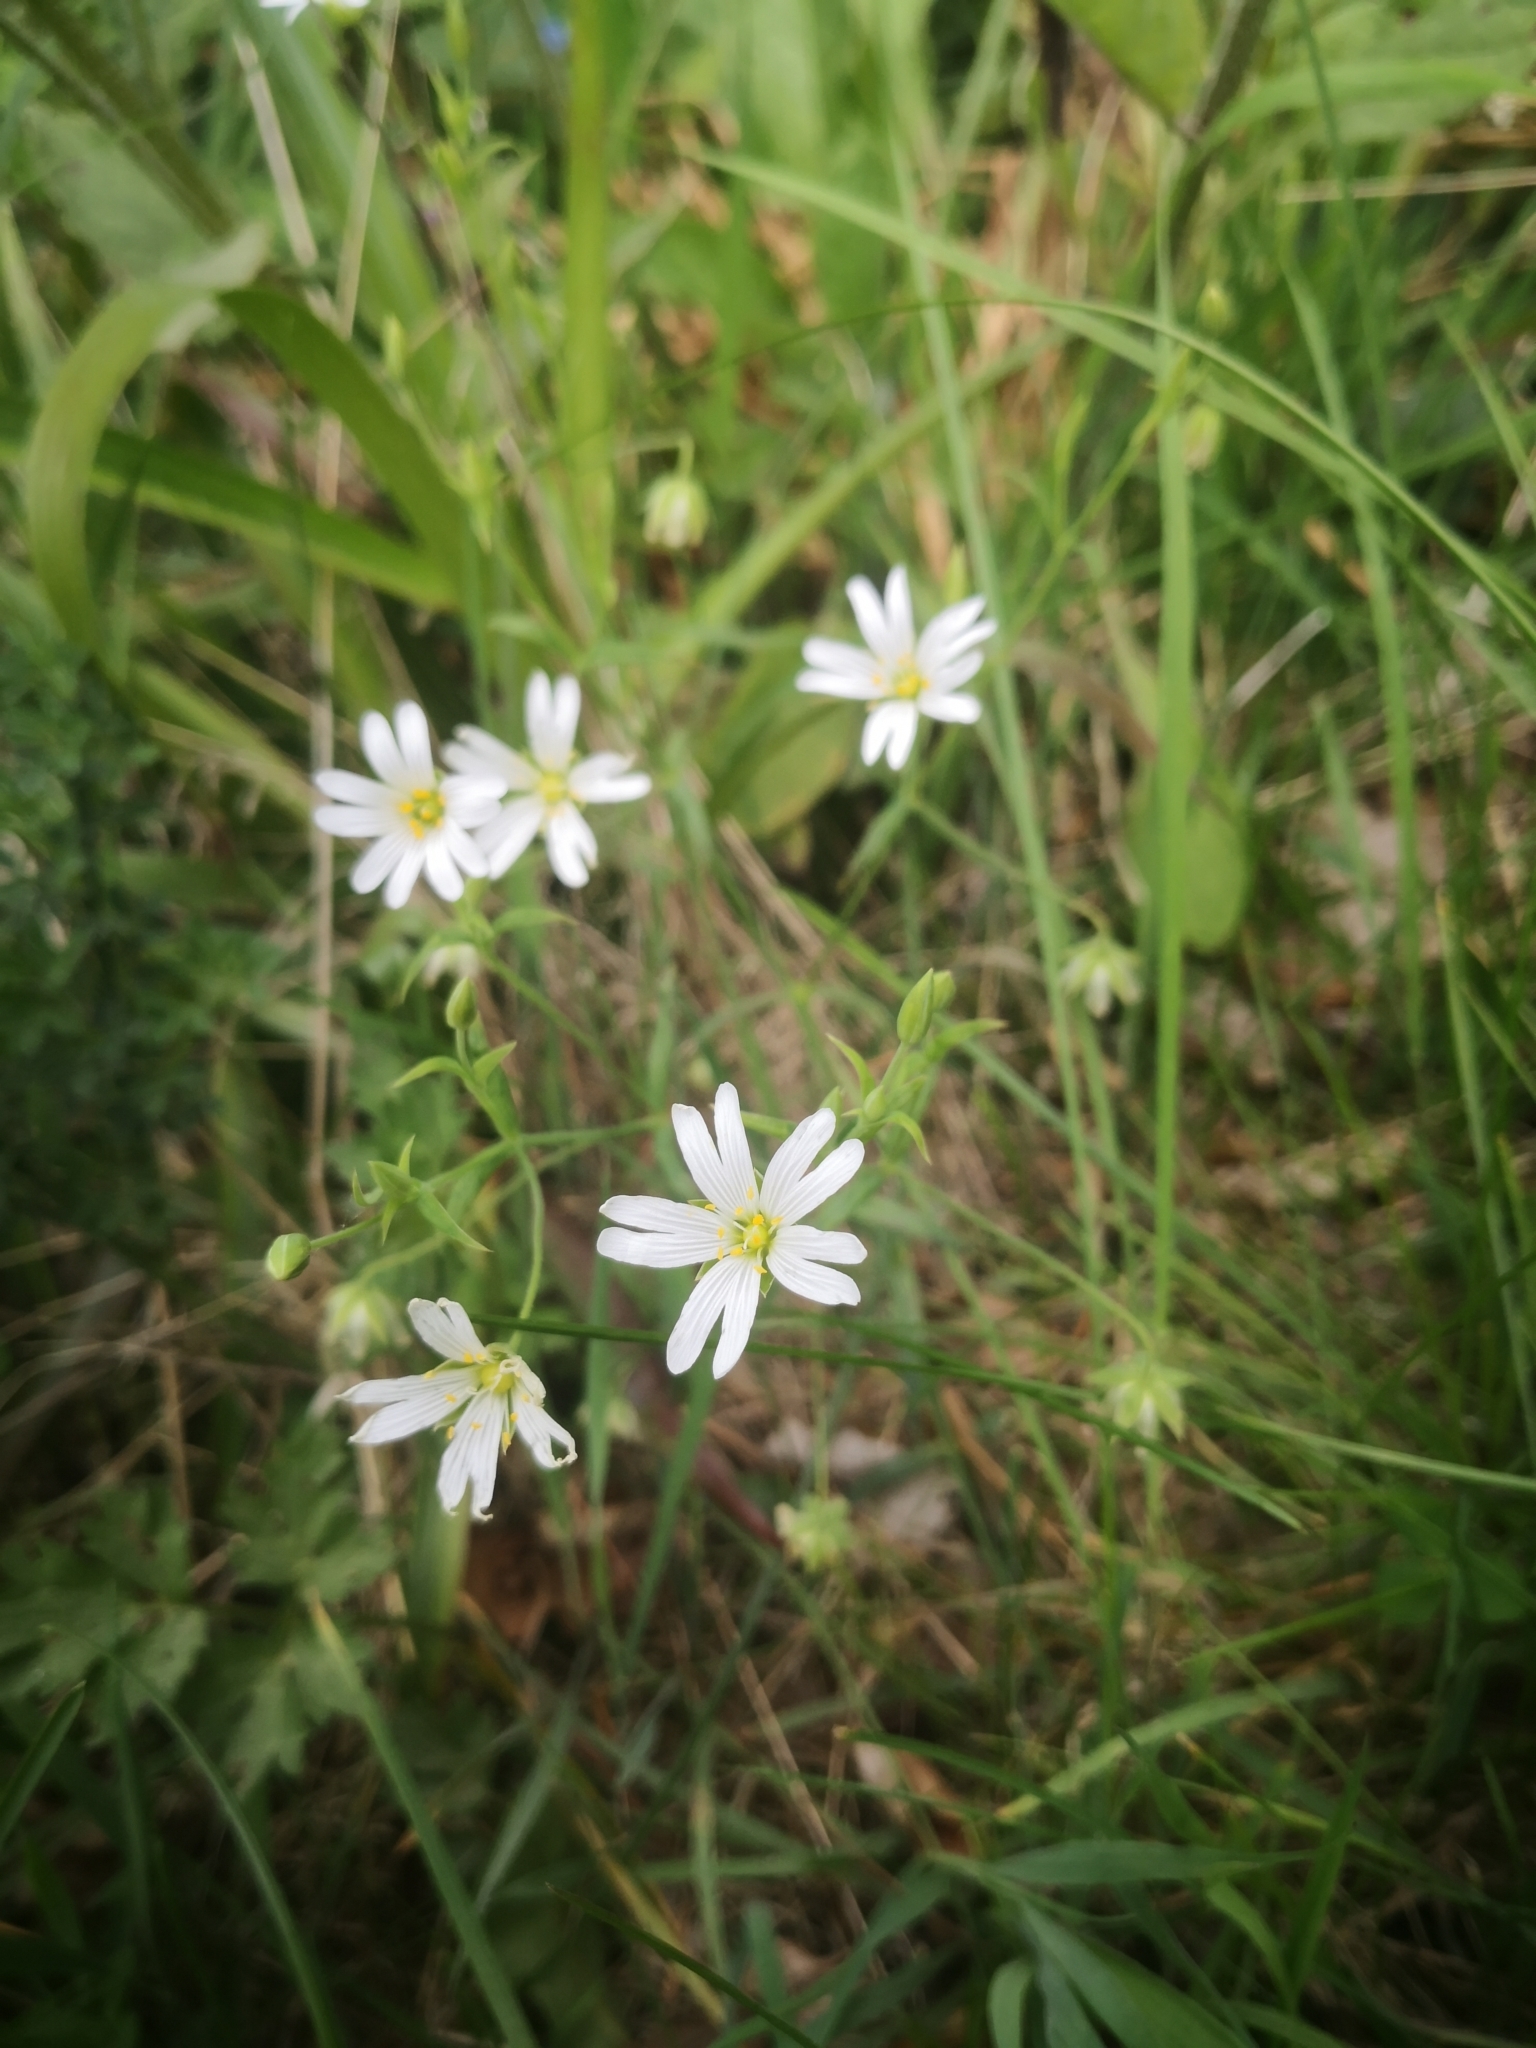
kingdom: Plantae
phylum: Tracheophyta
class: Magnoliopsida
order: Caryophyllales
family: Caryophyllaceae
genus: Rabelera
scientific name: Rabelera holostea
